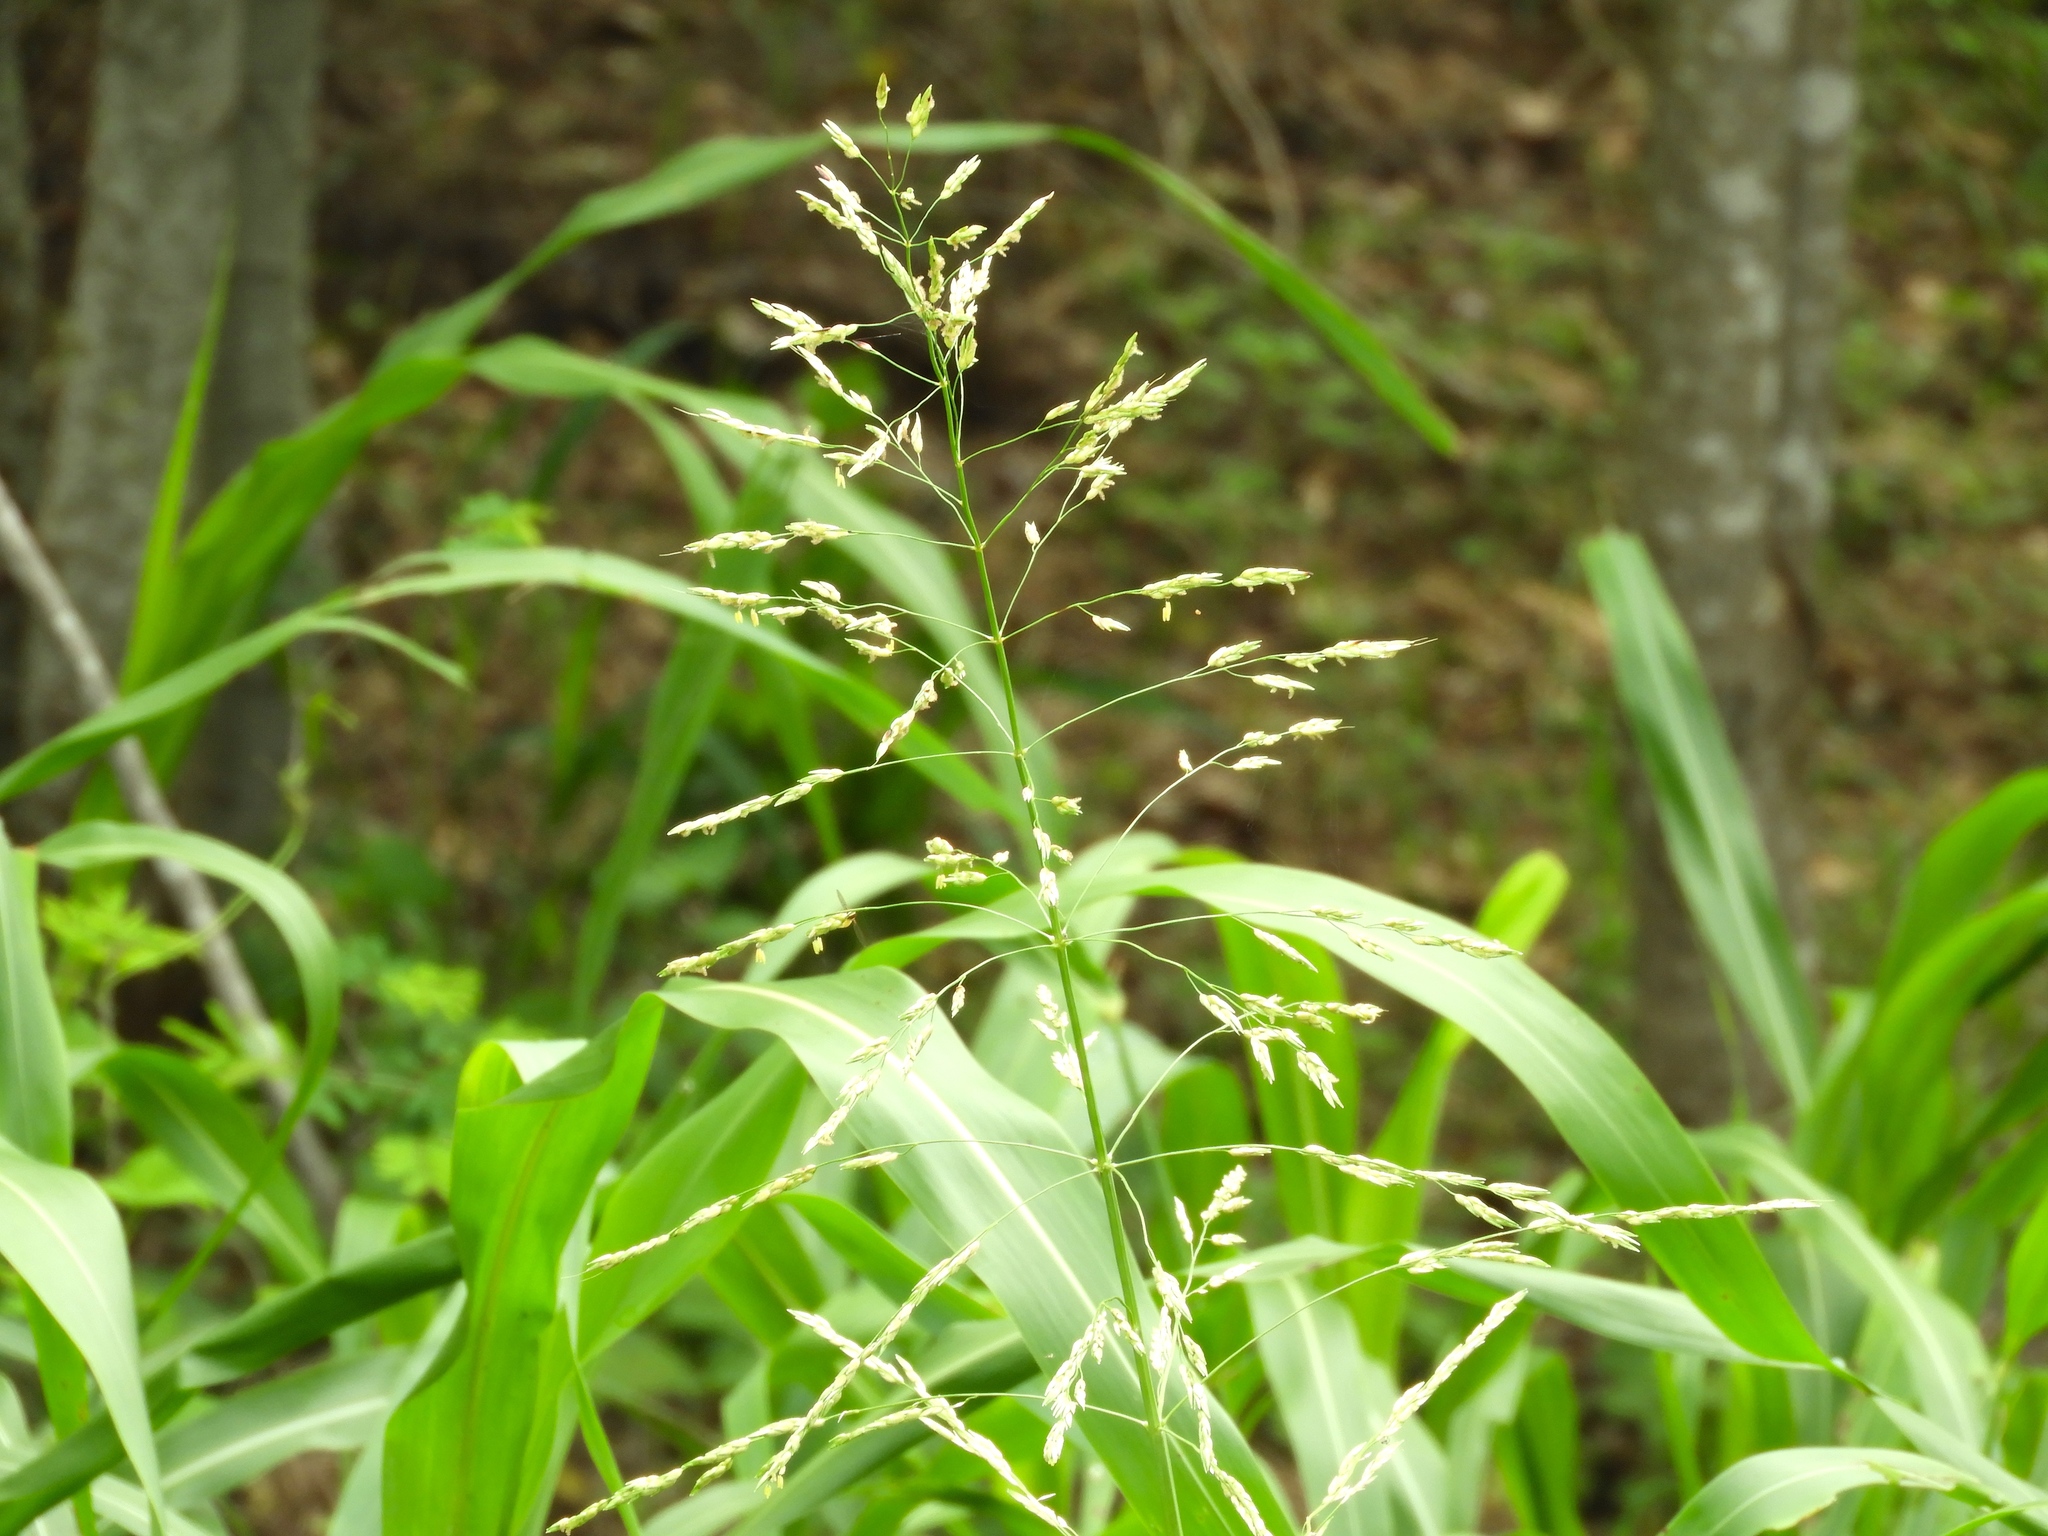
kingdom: Plantae
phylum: Tracheophyta
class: Liliopsida
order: Poales
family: Poaceae
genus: Sorghum
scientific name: Sorghum halepense
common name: Johnson-grass
